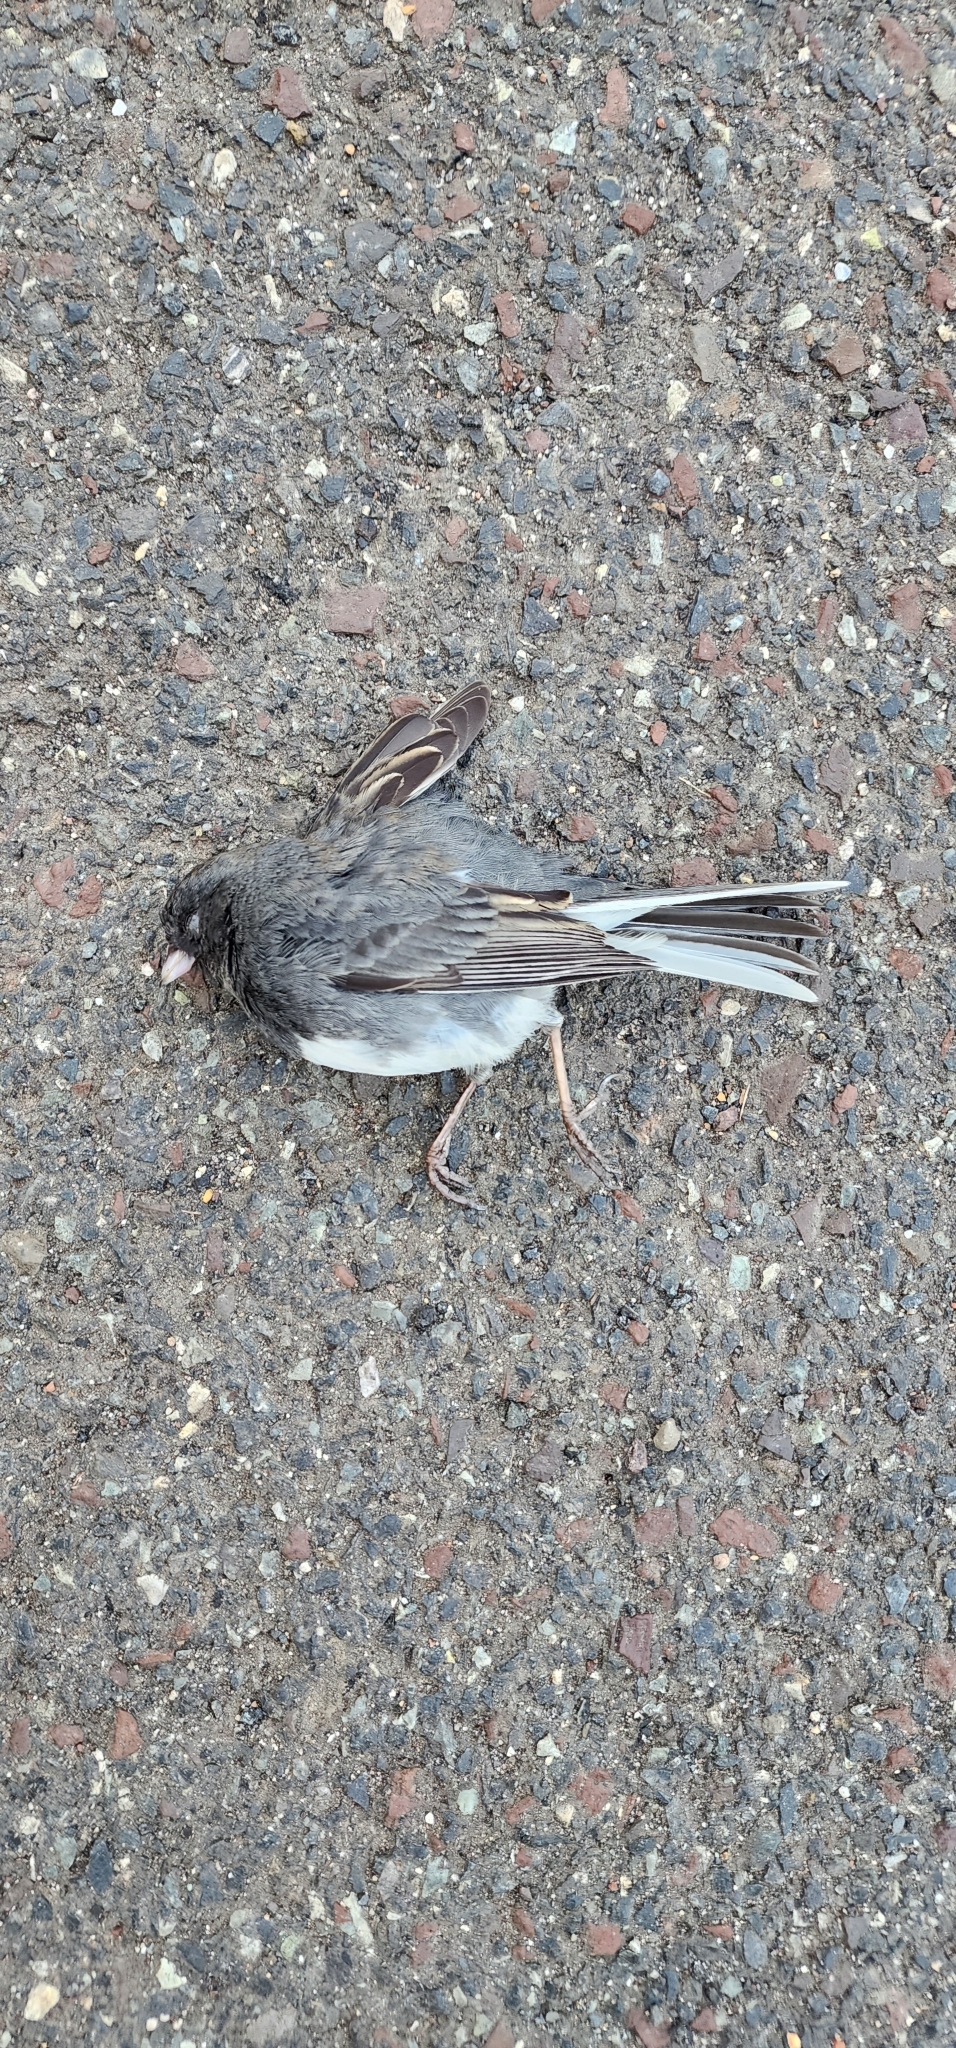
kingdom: Animalia
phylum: Chordata
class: Aves
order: Passeriformes
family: Passerellidae
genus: Junco
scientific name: Junco hyemalis
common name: Dark-eyed junco
